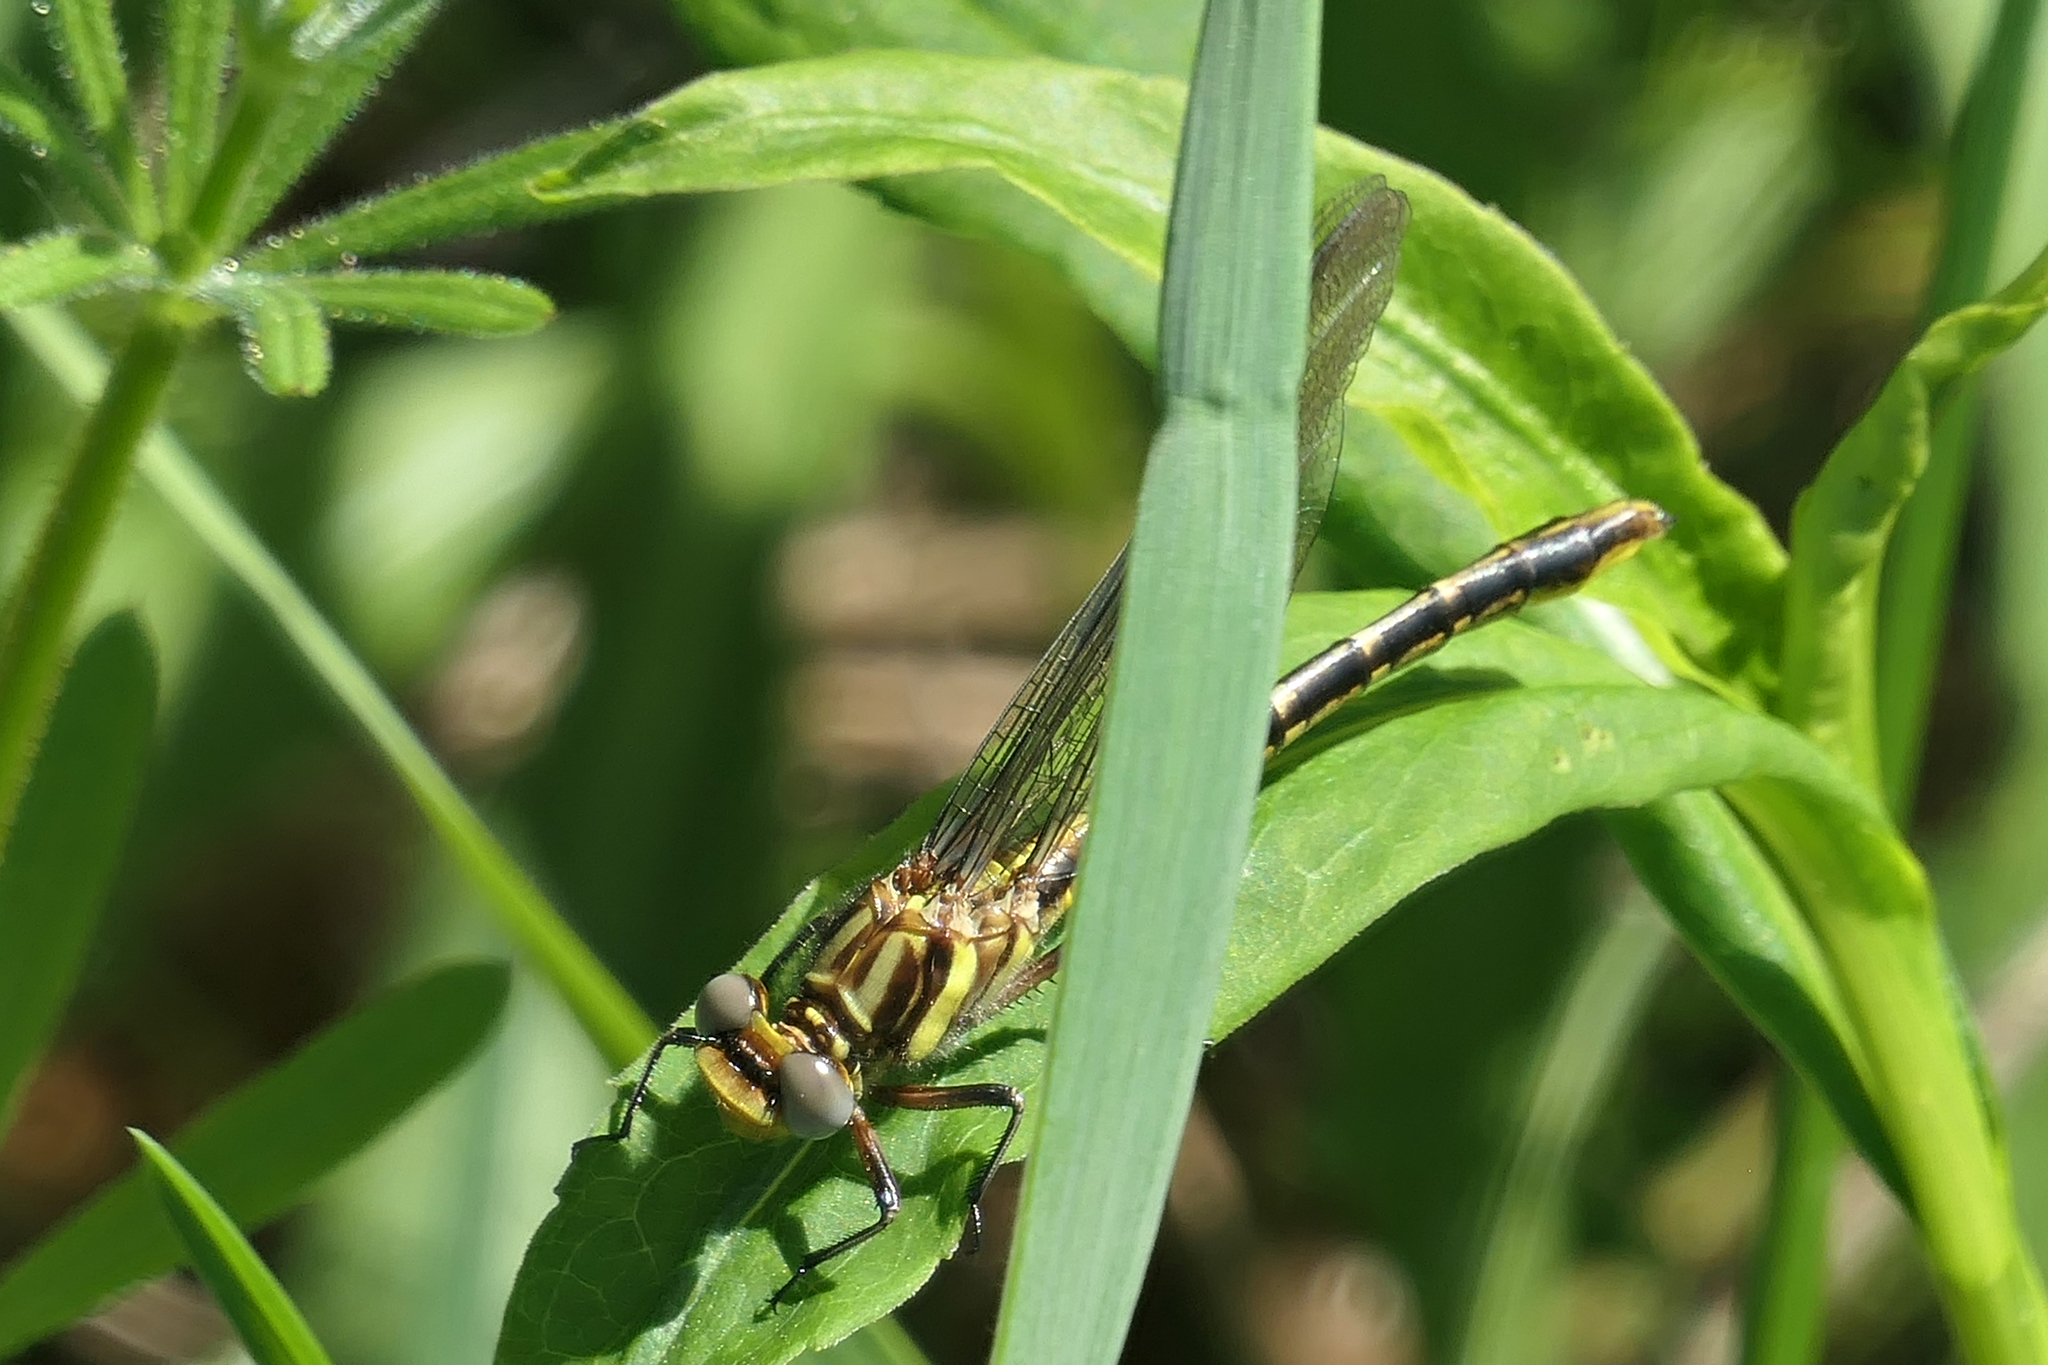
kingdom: Animalia
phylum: Arthropoda
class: Insecta
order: Odonata
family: Gomphidae
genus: Phanogomphus
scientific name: Phanogomphus exilis
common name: Lancet clubtail
